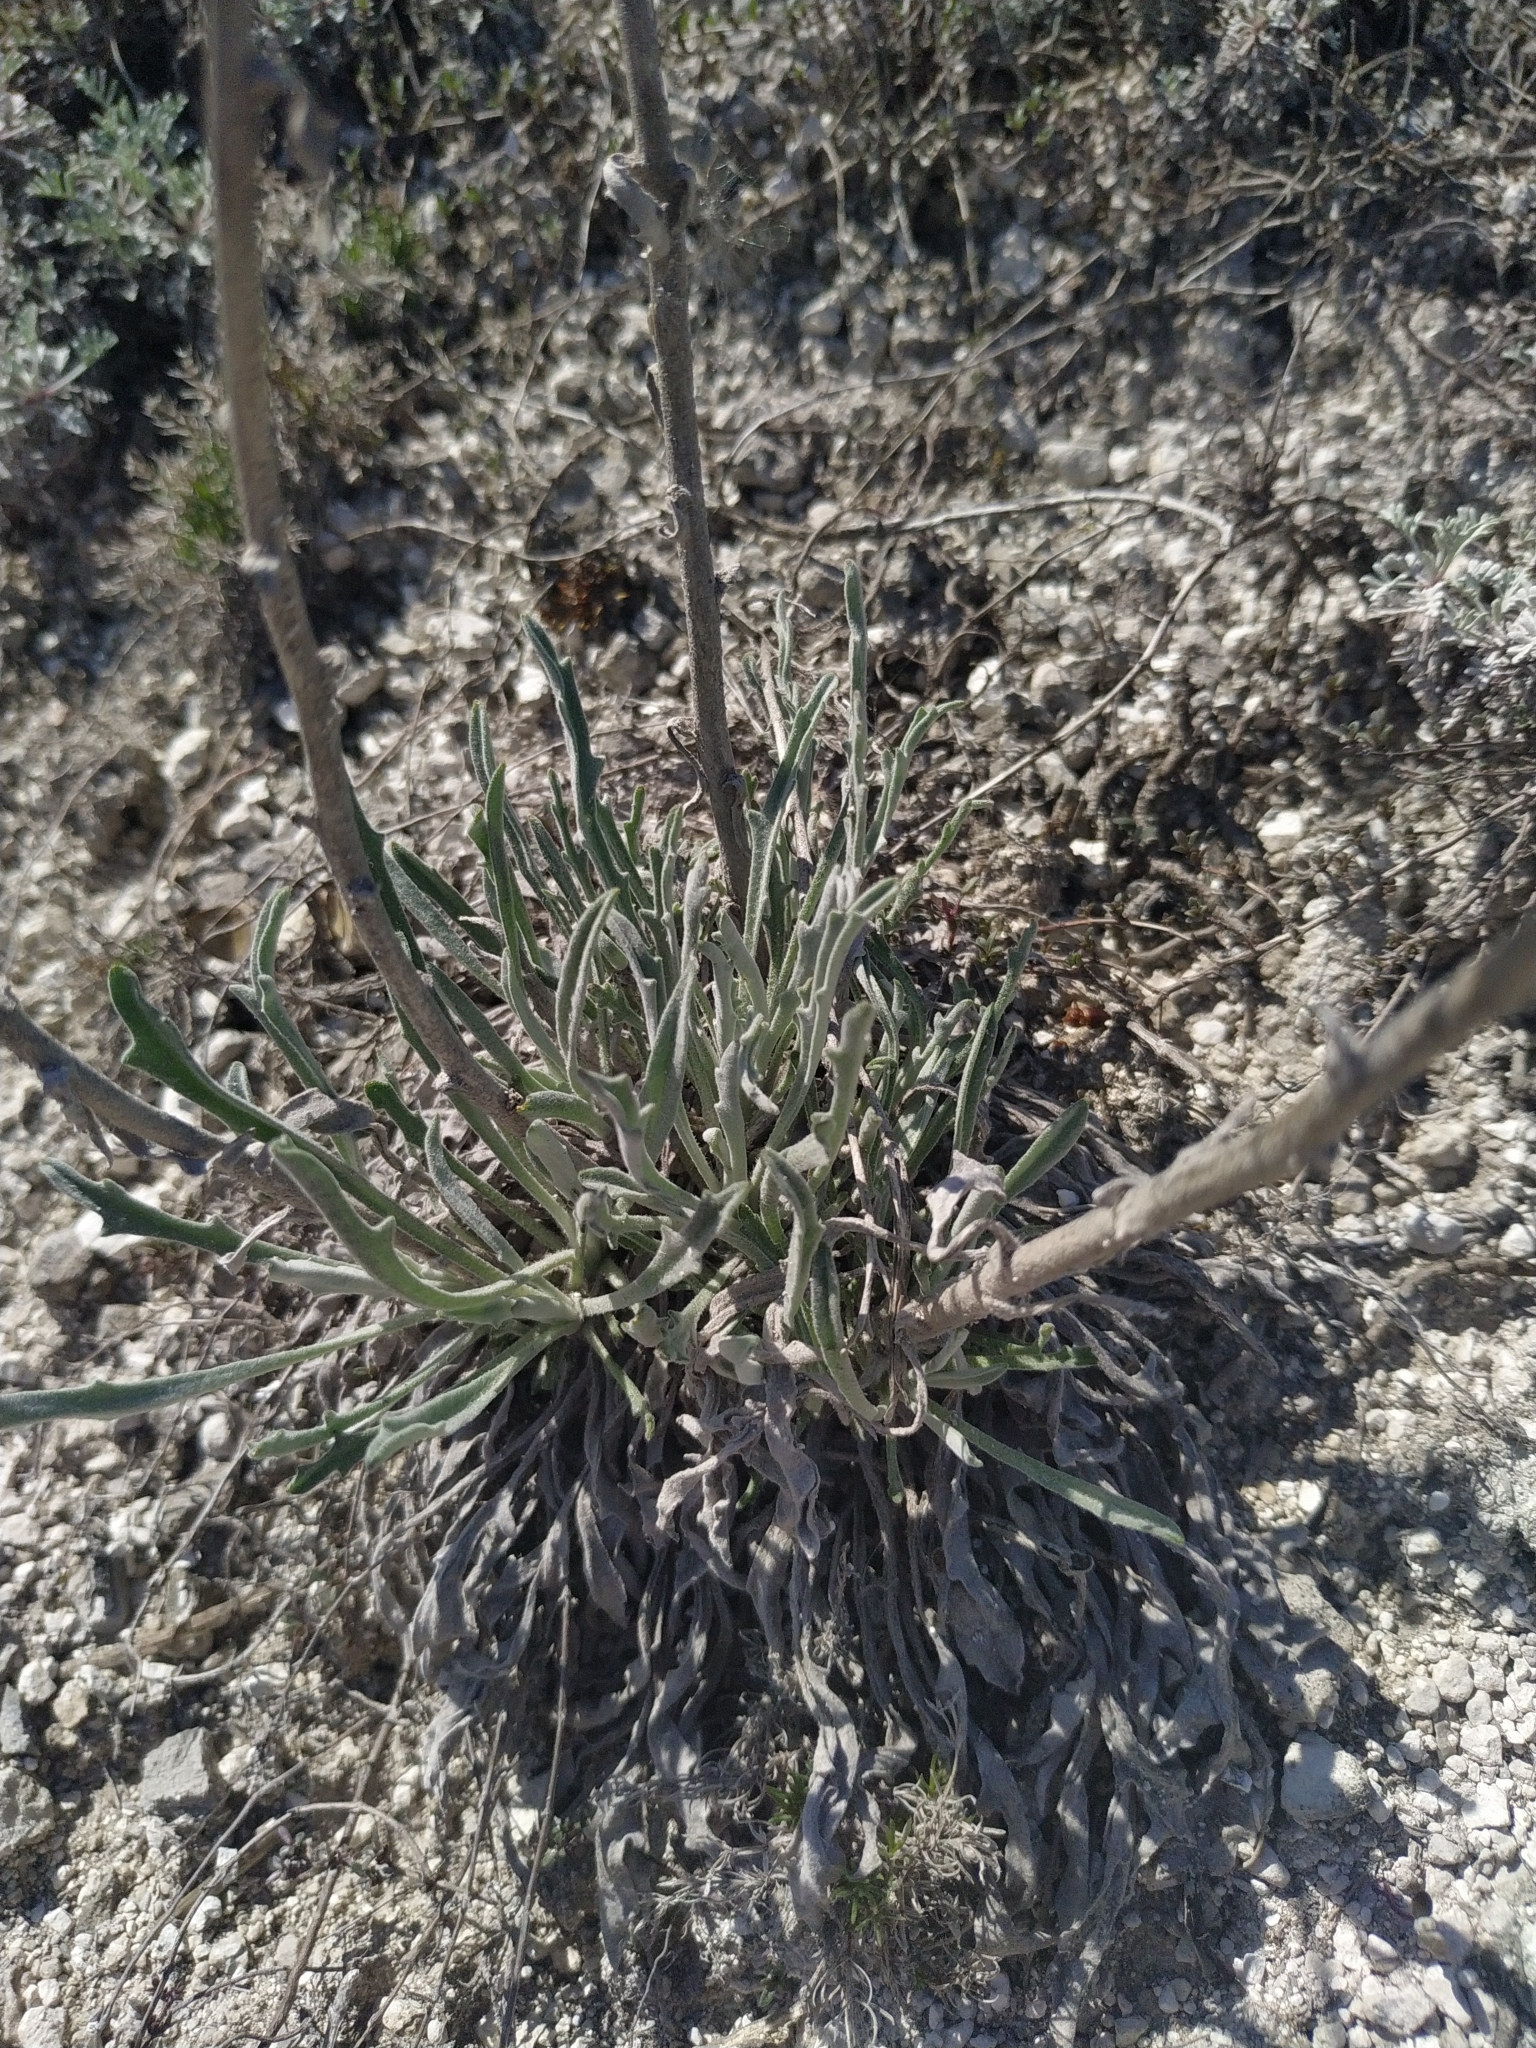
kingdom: Plantae
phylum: Tracheophyta
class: Magnoliopsida
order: Brassicales
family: Brassicaceae
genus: Matthiola
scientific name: Matthiola fragrans
